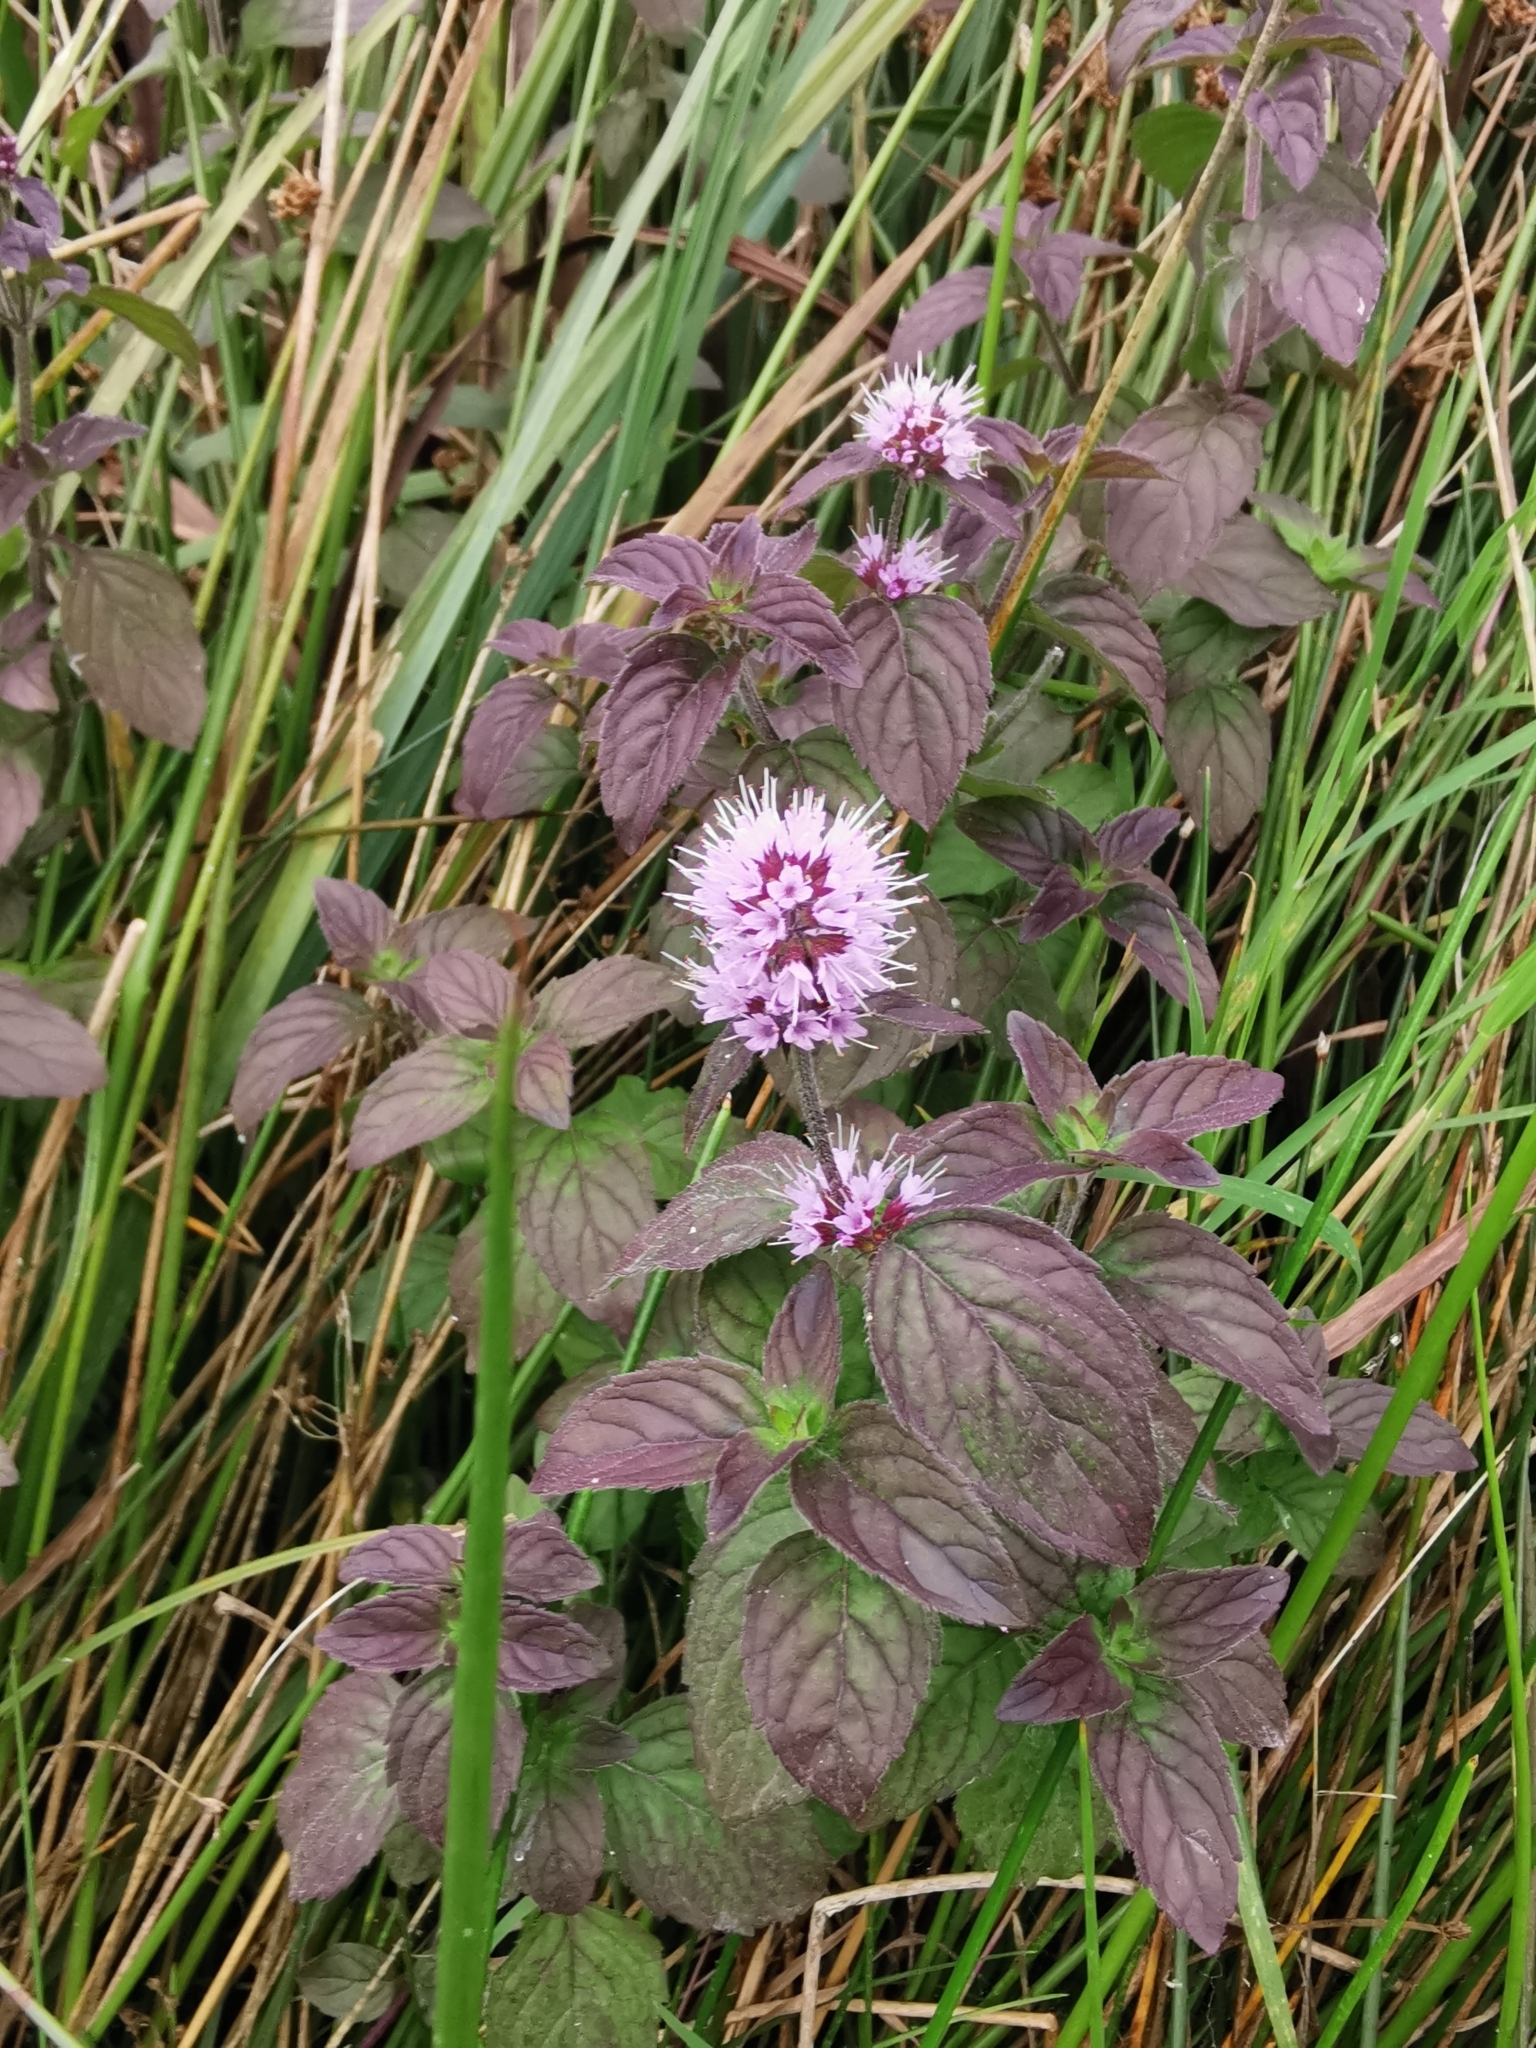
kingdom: Plantae
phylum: Tracheophyta
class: Magnoliopsida
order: Lamiales
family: Lamiaceae
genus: Mentha
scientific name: Mentha aquatica
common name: Water mint
